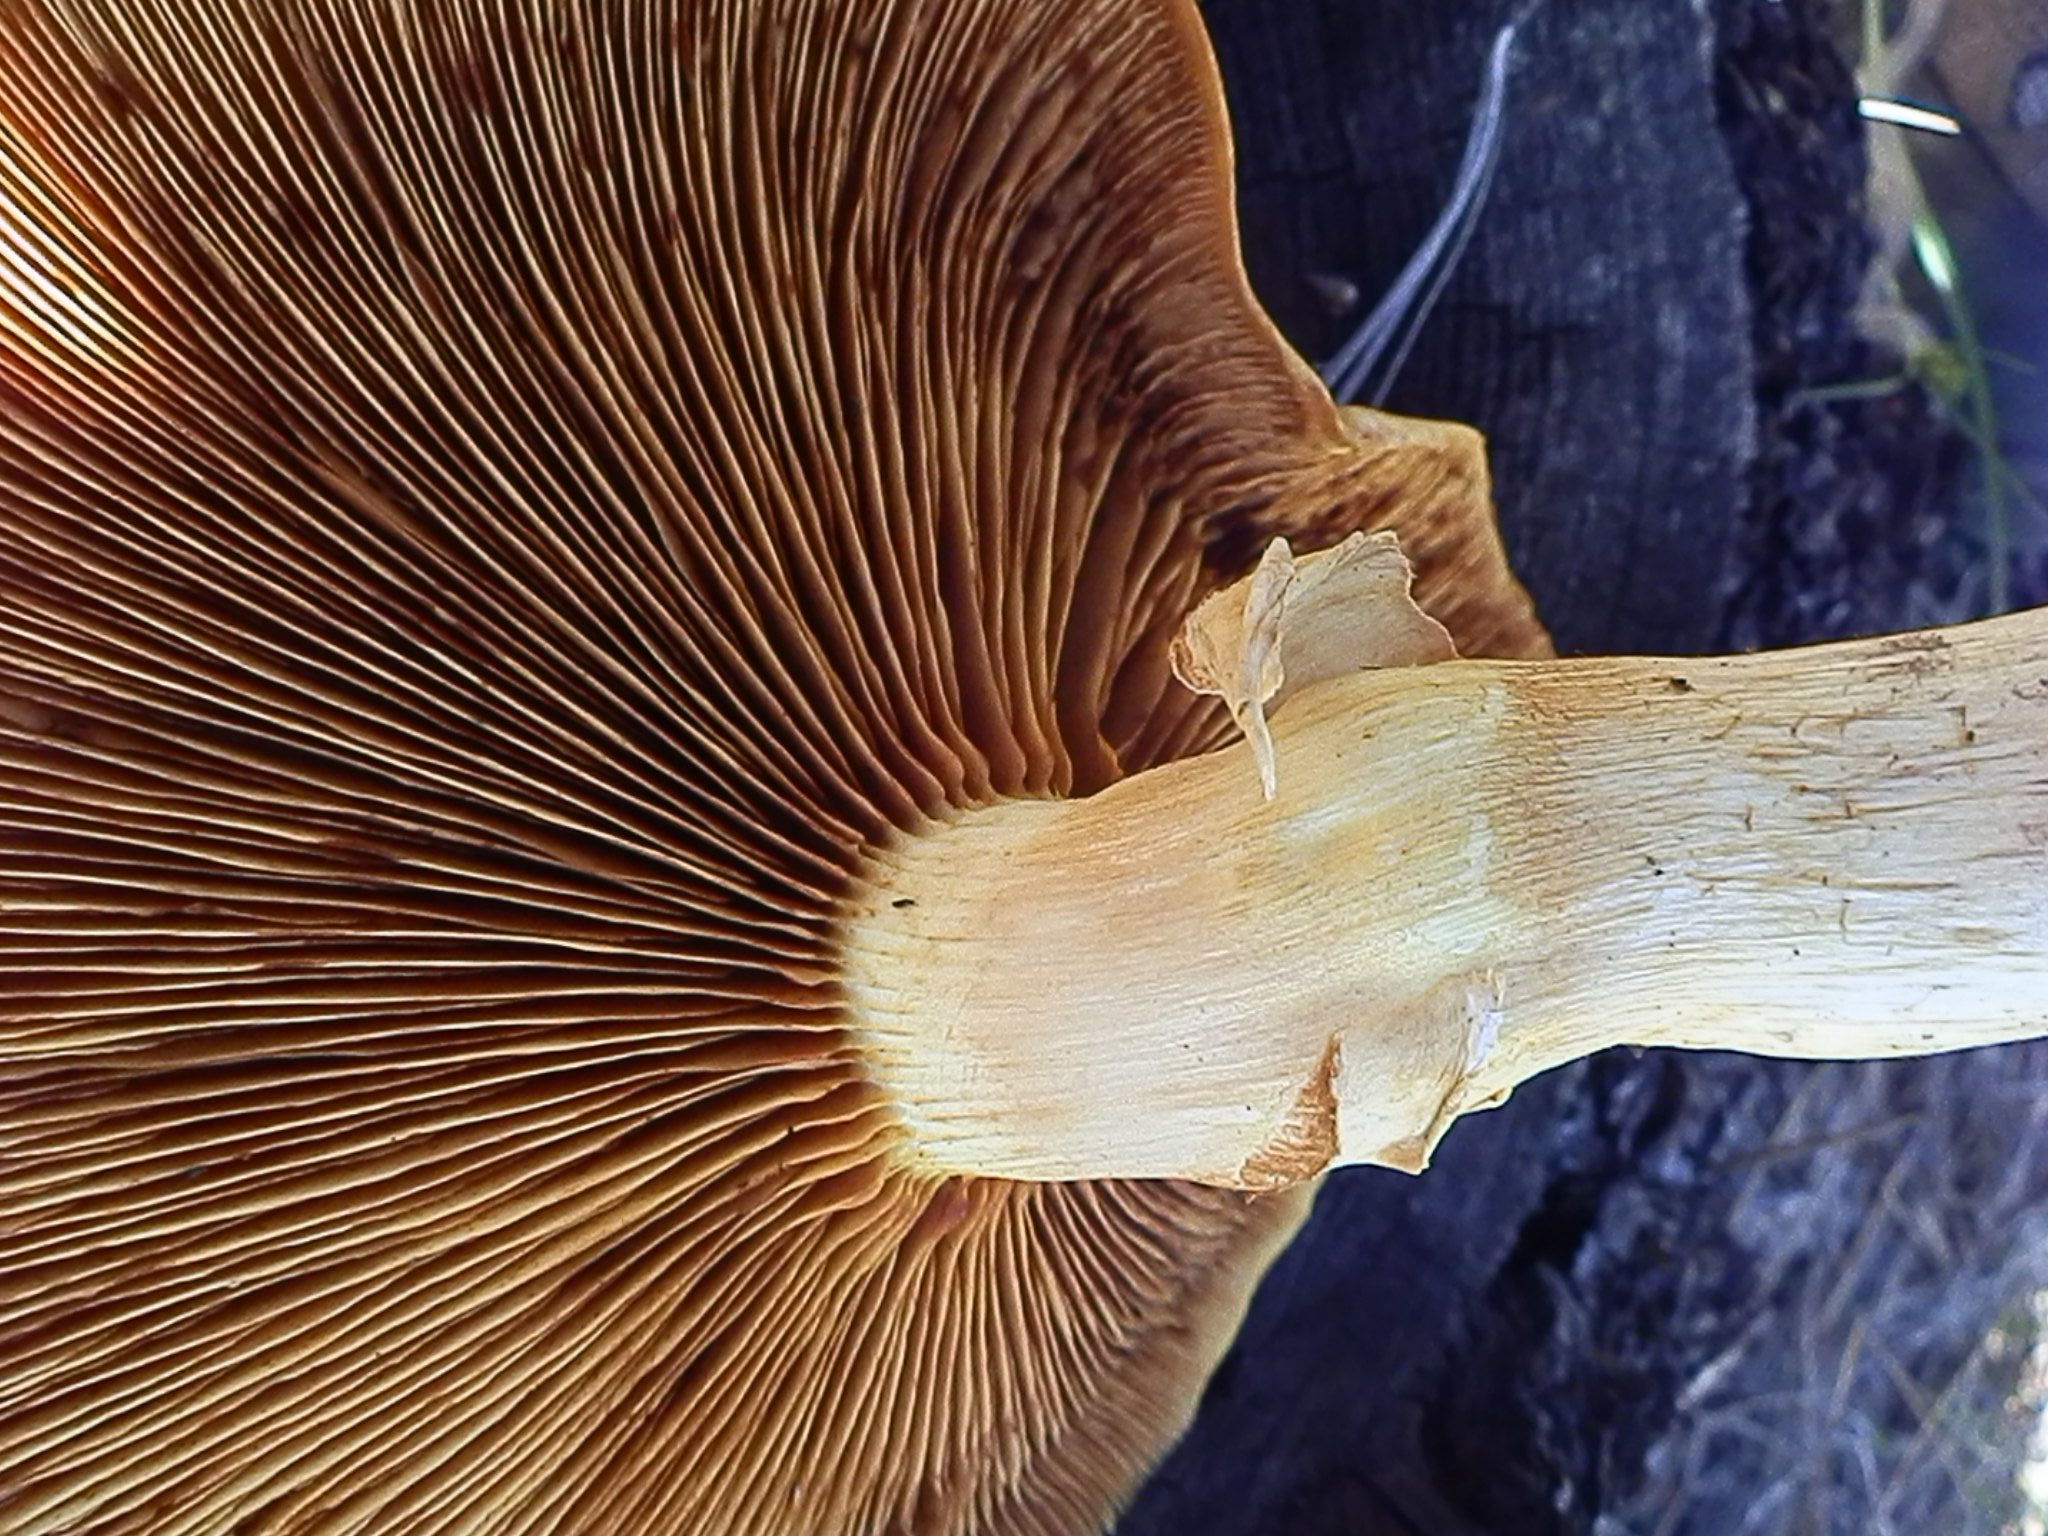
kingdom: Fungi
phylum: Basidiomycota
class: Agaricomycetes
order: Agaricales
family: Hymenogastraceae
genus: Gymnopilus
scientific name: Gymnopilus ventricosus
